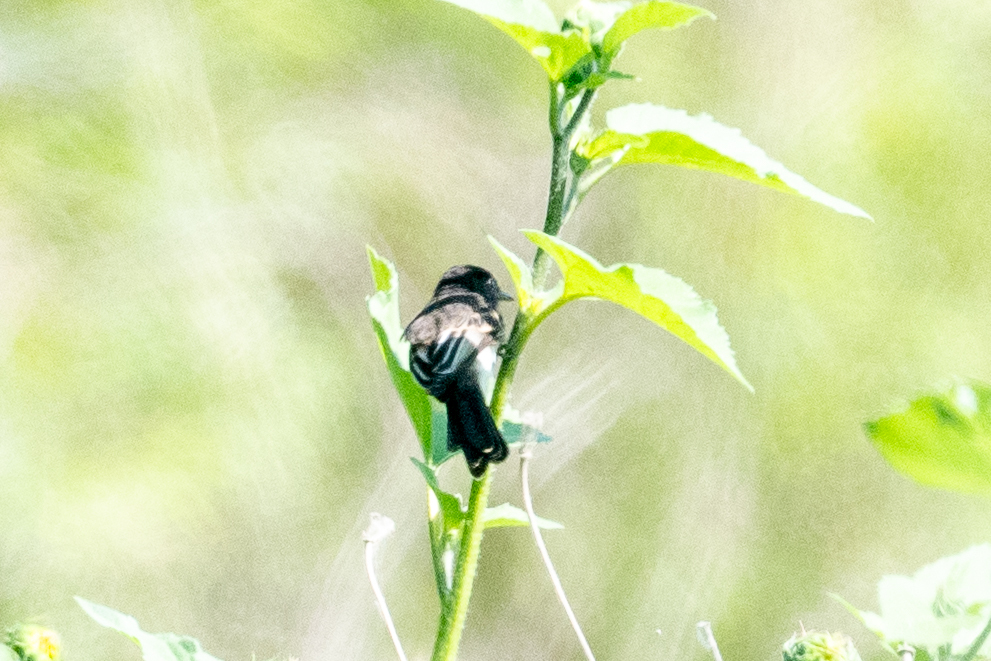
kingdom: Animalia
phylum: Chordata
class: Aves
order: Passeriformes
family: Tyrannidae
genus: Sayornis
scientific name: Sayornis nigricans
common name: Black phoebe
